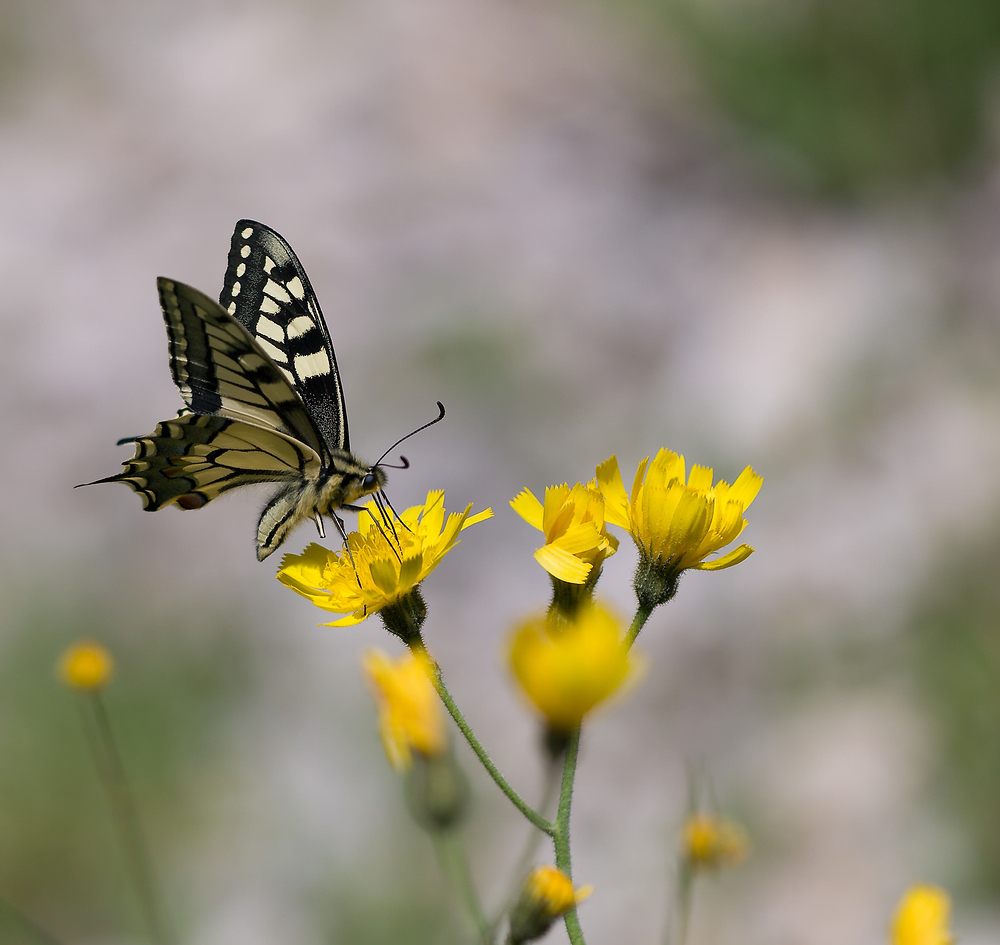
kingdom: Animalia
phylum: Arthropoda
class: Insecta
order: Lepidoptera
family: Papilionidae
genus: Papilio
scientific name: Papilio machaon
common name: Swallowtail
